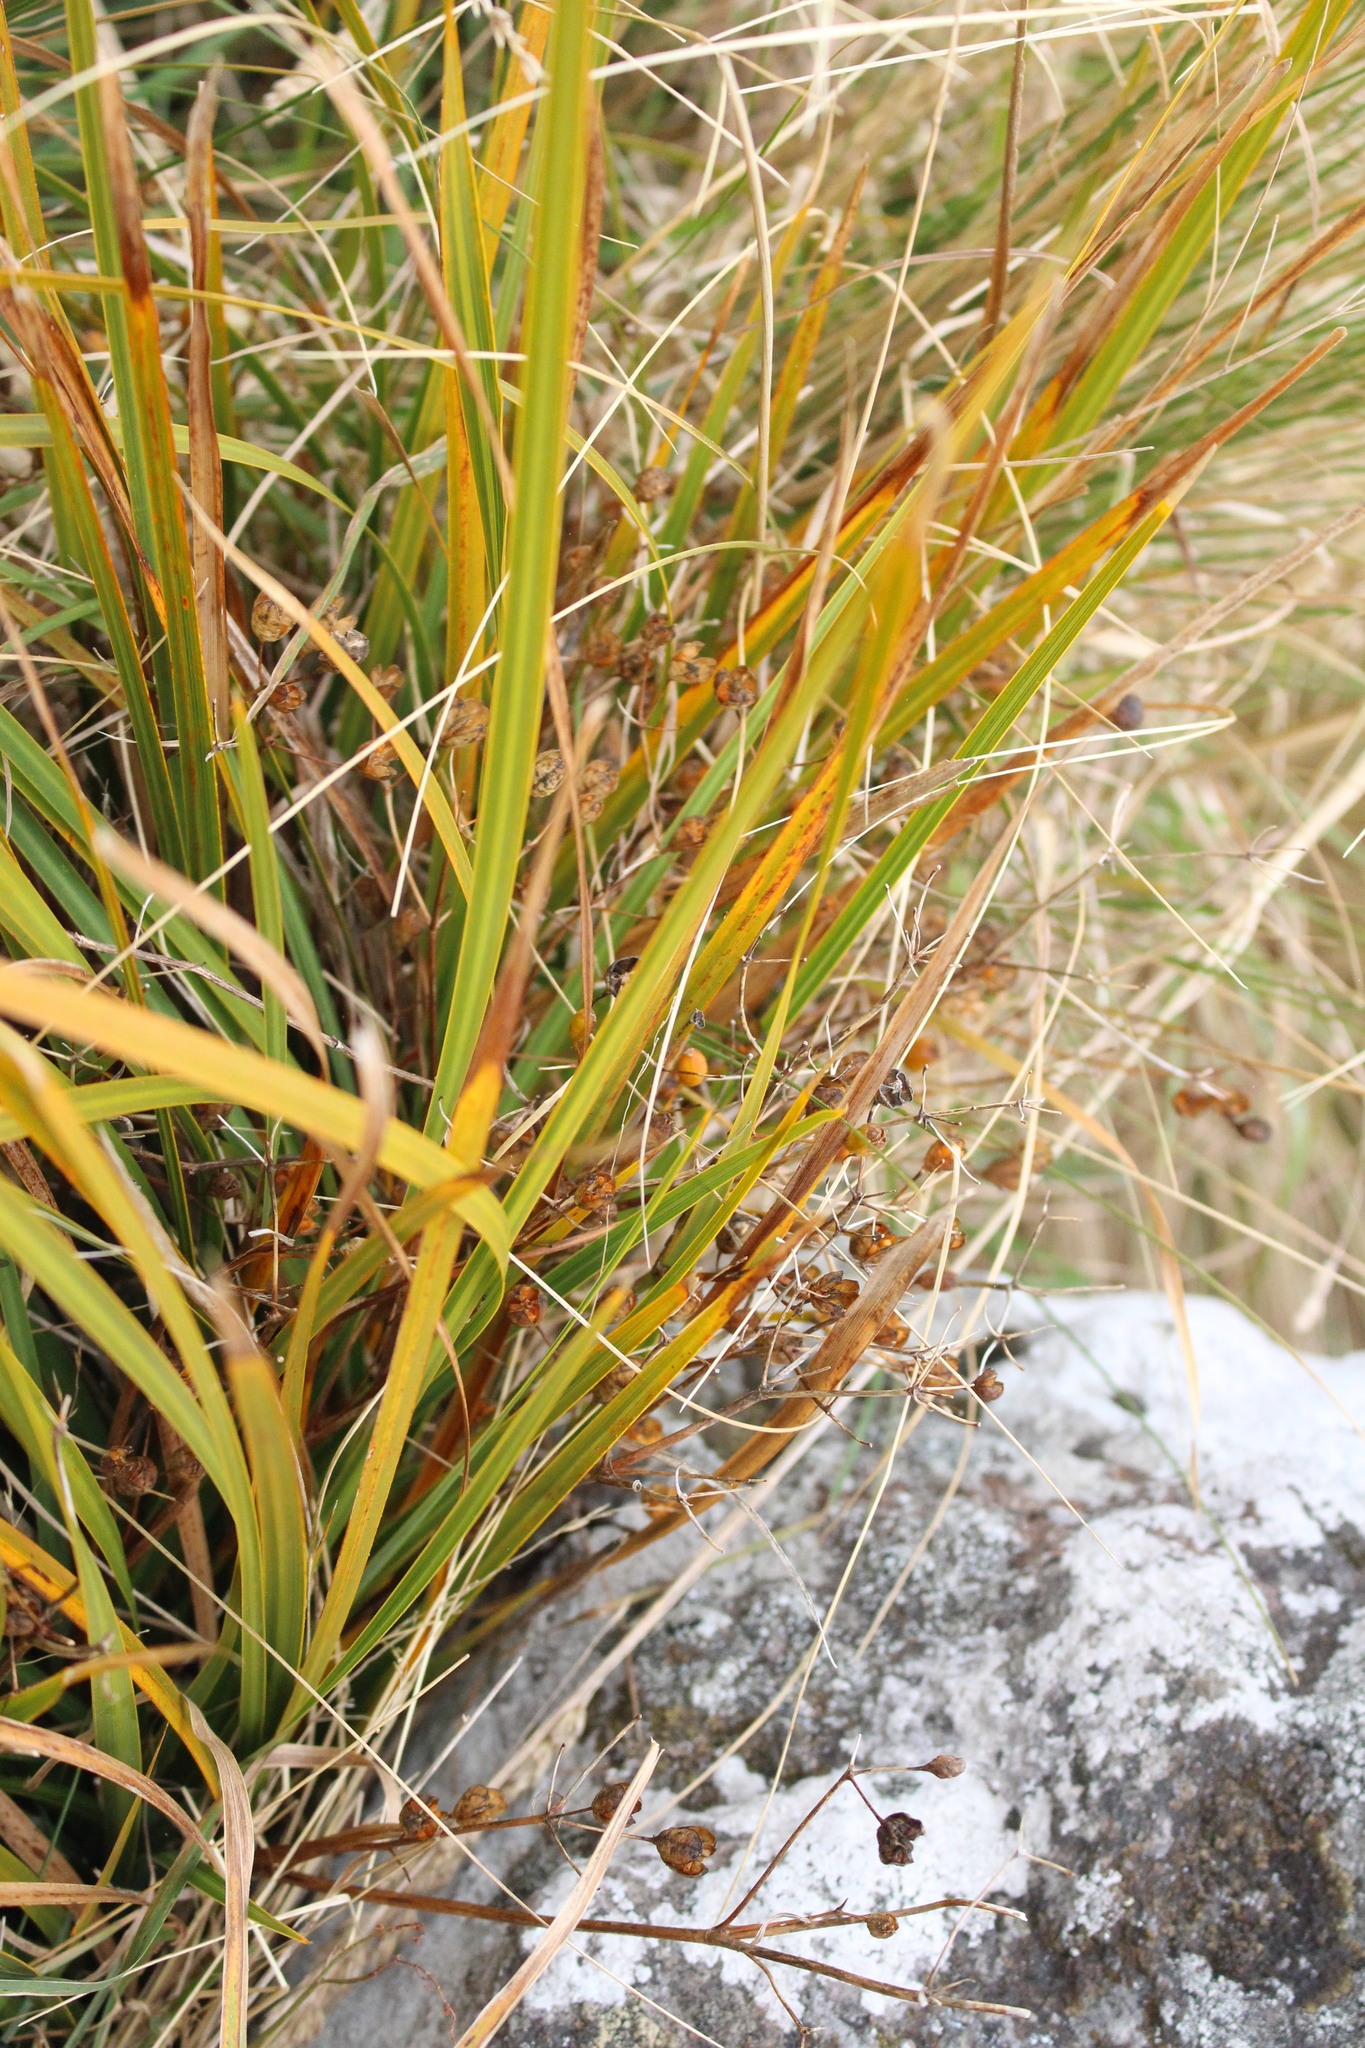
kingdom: Plantae
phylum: Tracheophyta
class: Liliopsida
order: Asparagales
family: Iridaceae
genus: Libertia
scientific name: Libertia ixioides
